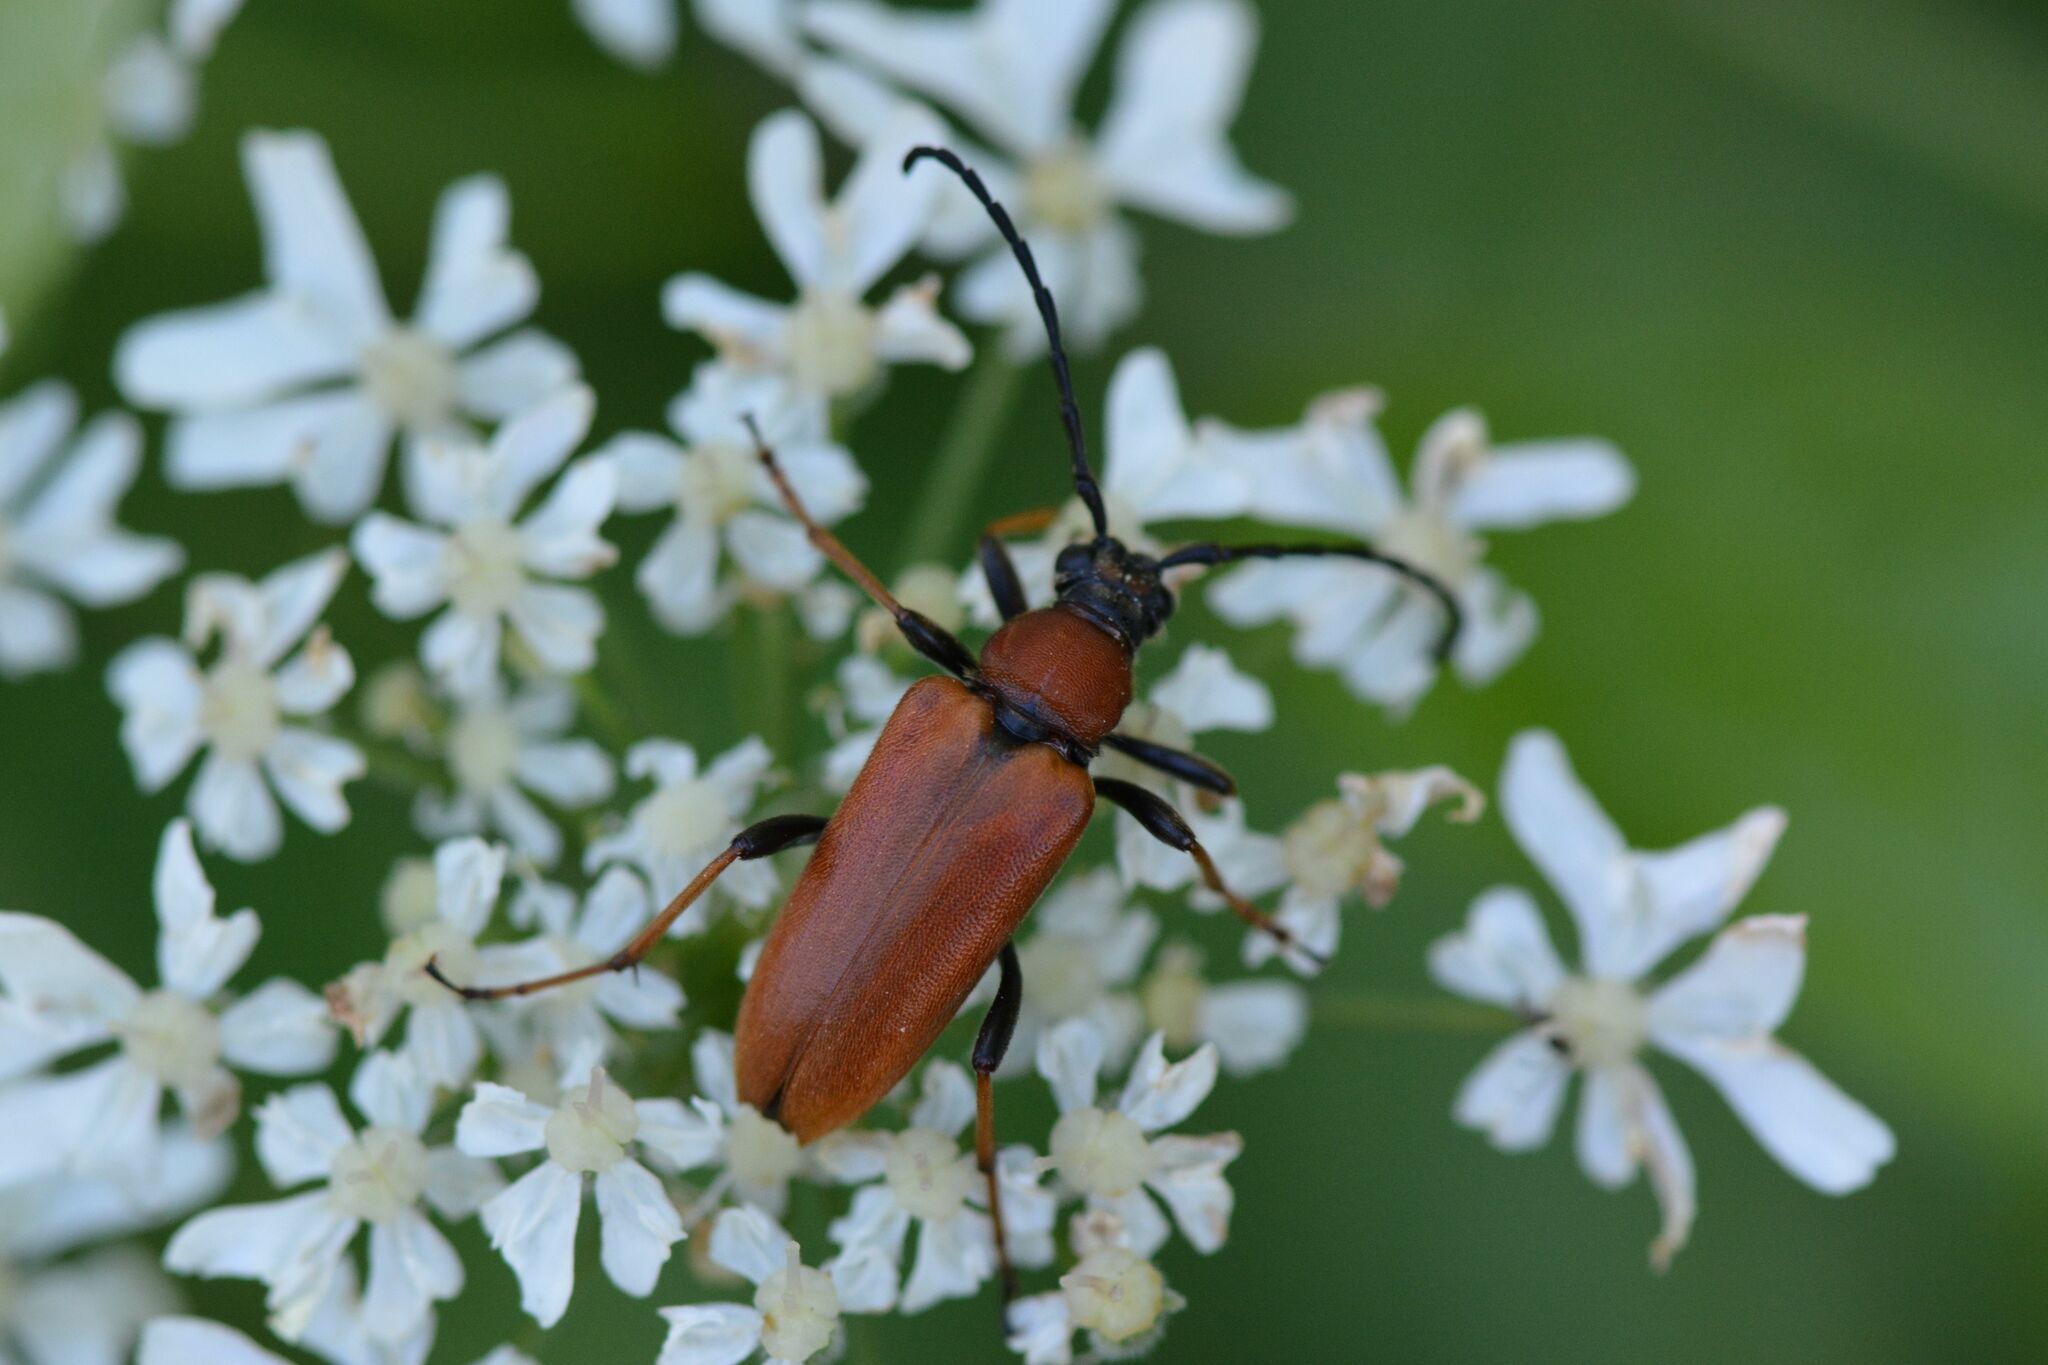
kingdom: Animalia
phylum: Arthropoda
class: Insecta
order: Coleoptera
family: Cerambycidae
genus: Stictoleptura
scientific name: Stictoleptura rubra
